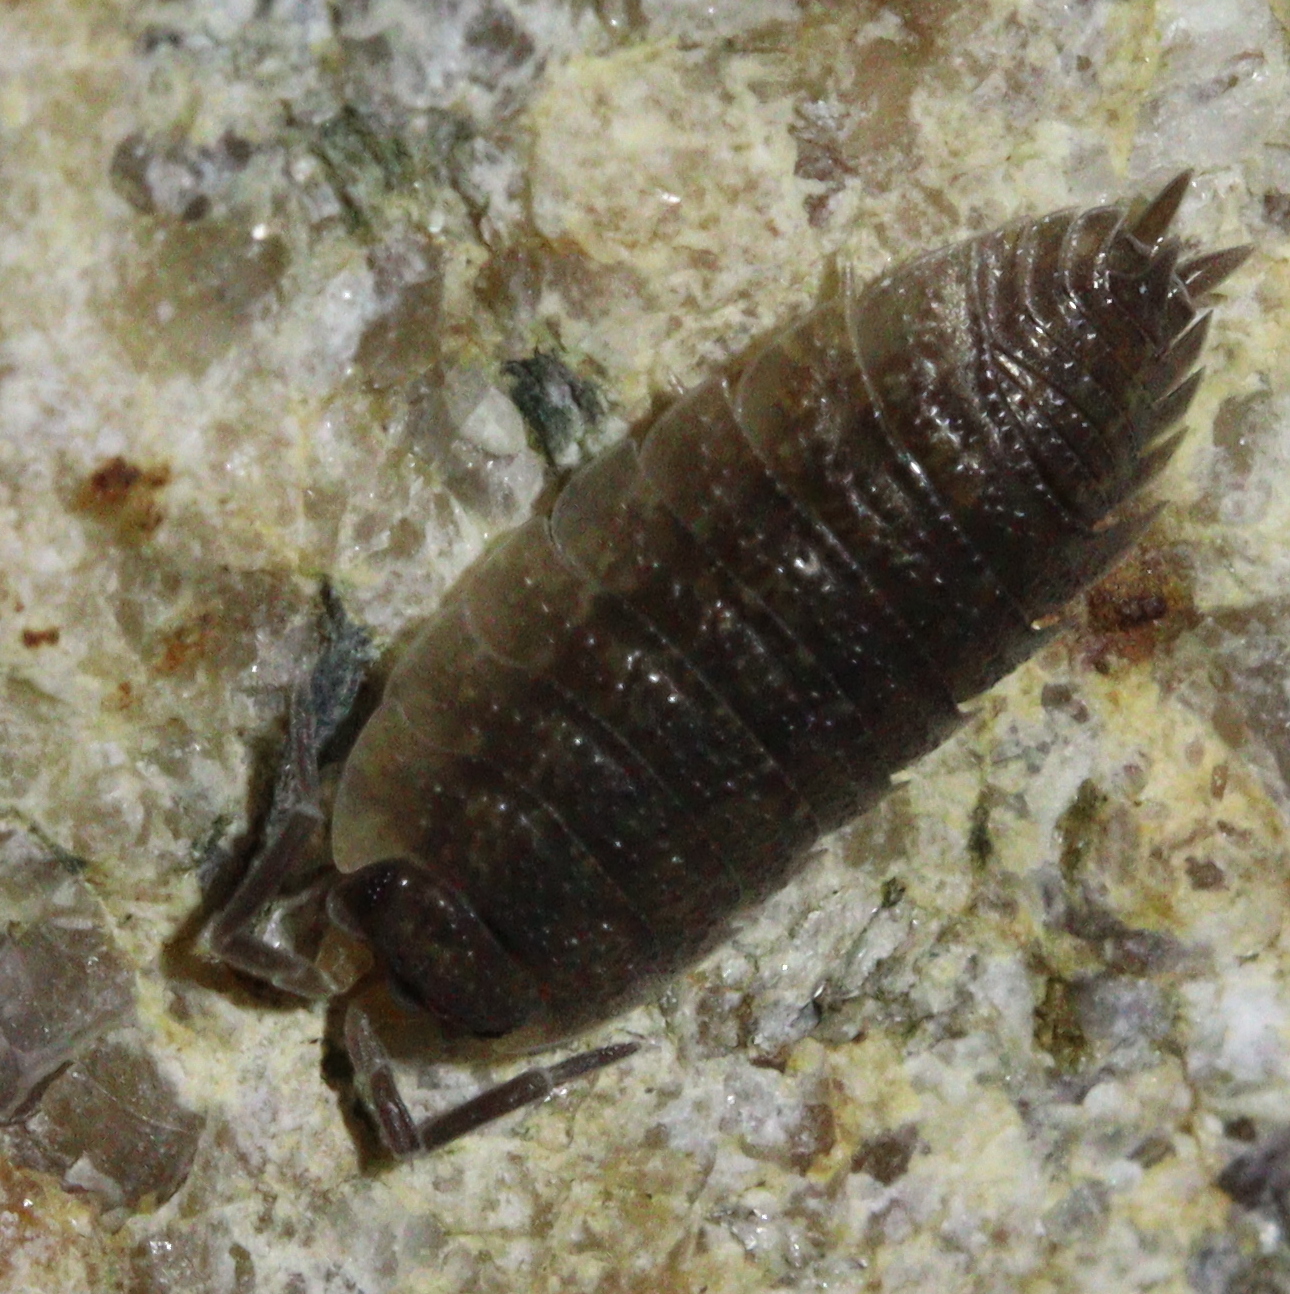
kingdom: Animalia
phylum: Arthropoda
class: Malacostraca
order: Isopoda
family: Porcellionidae
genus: Porcellio
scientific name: Porcellio scaber
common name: Common rough woodlouse
